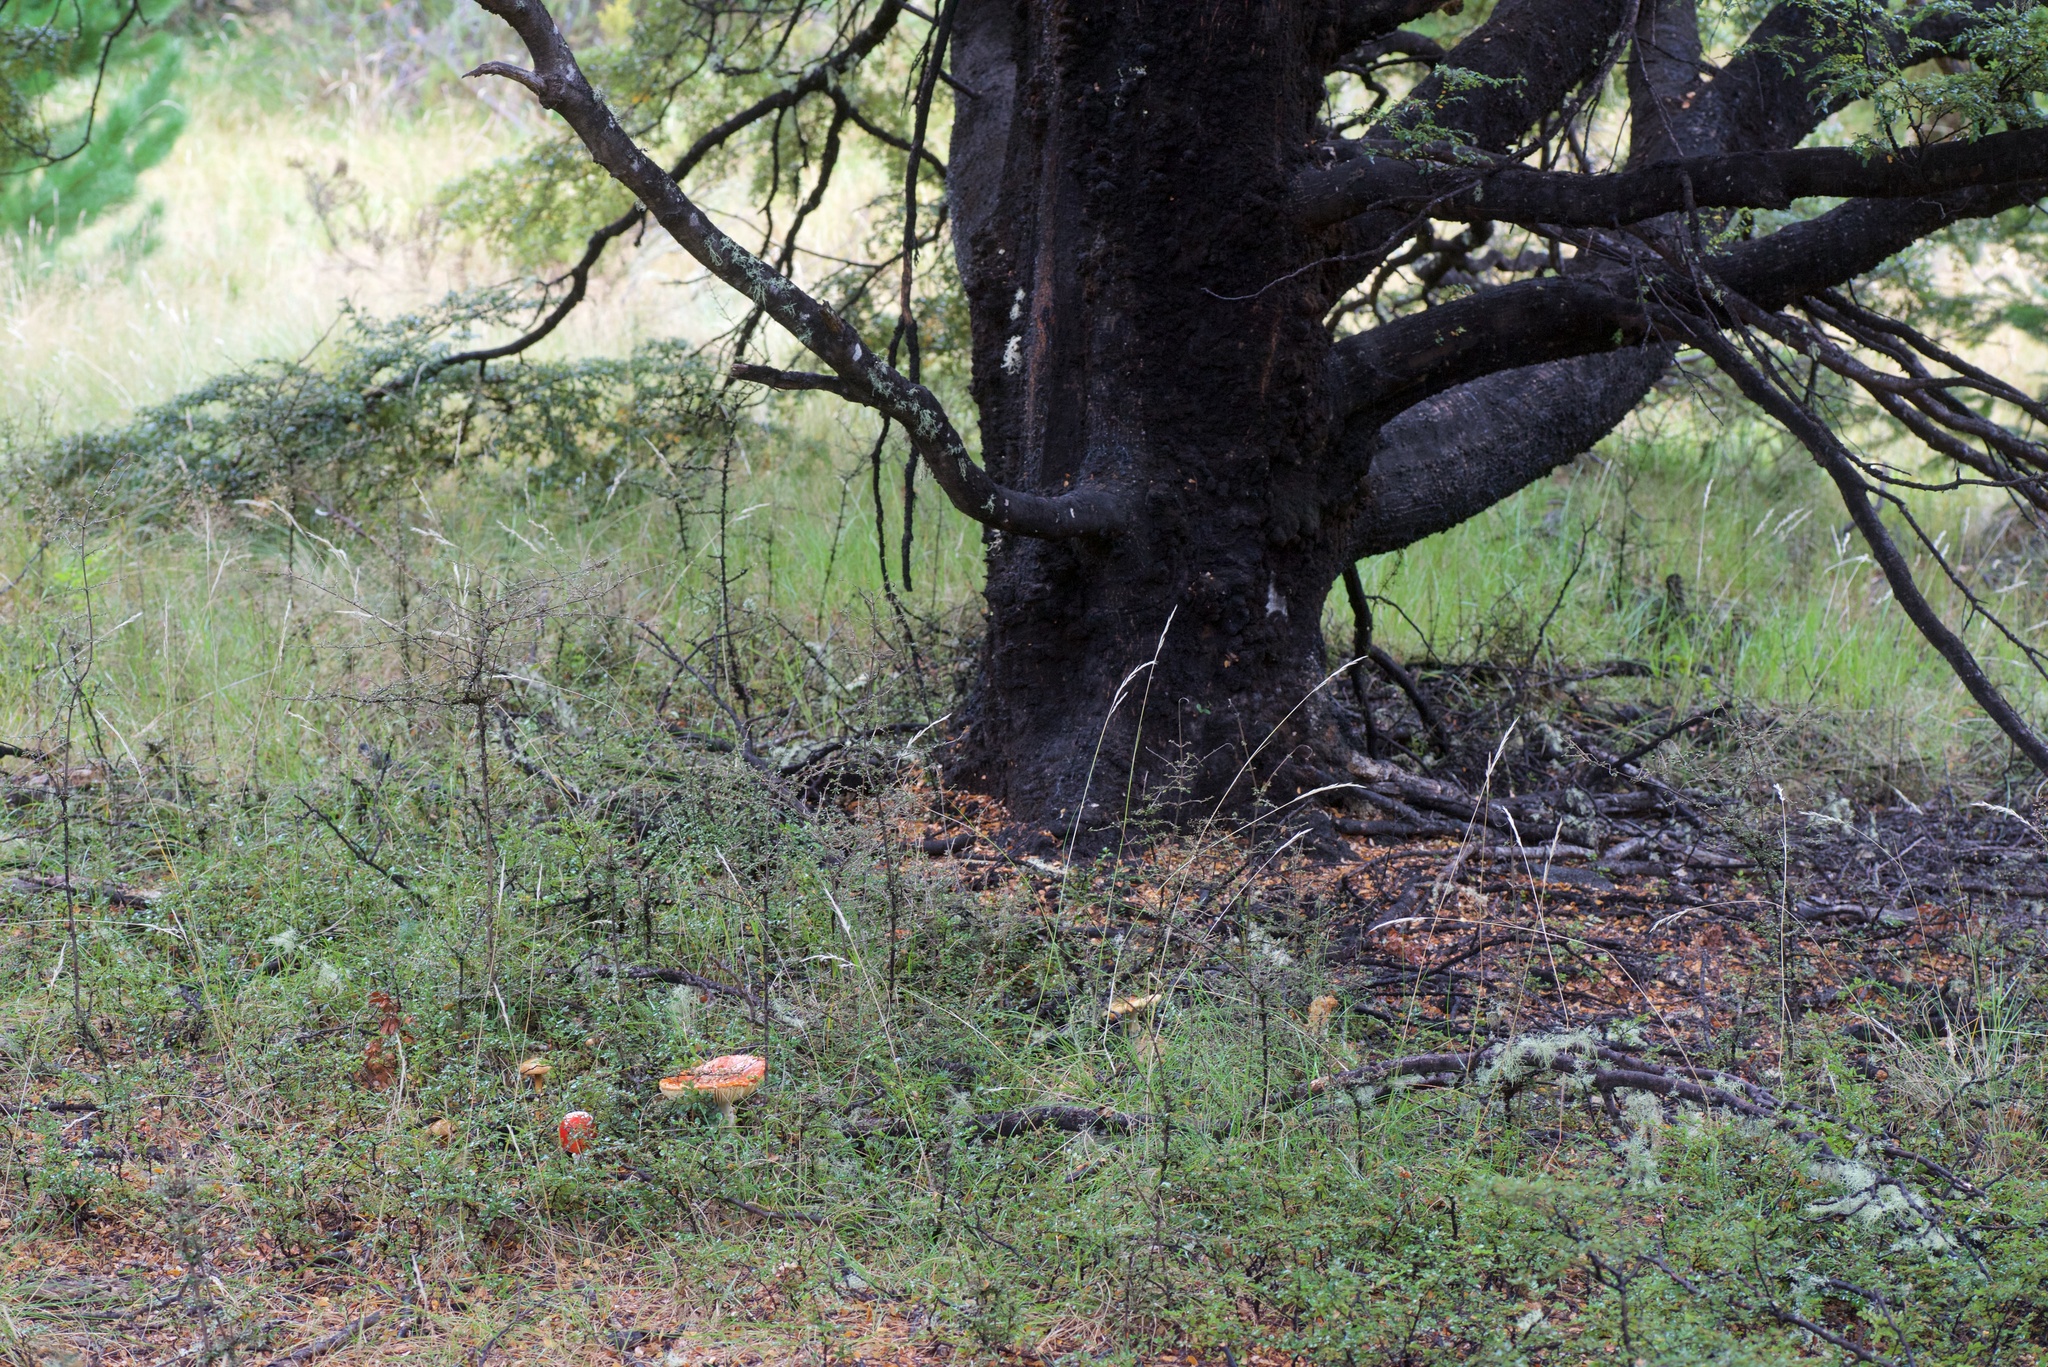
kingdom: Fungi
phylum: Basidiomycota
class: Agaricomycetes
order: Agaricales
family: Amanitaceae
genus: Amanita
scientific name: Amanita muscaria
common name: Fly agaric
